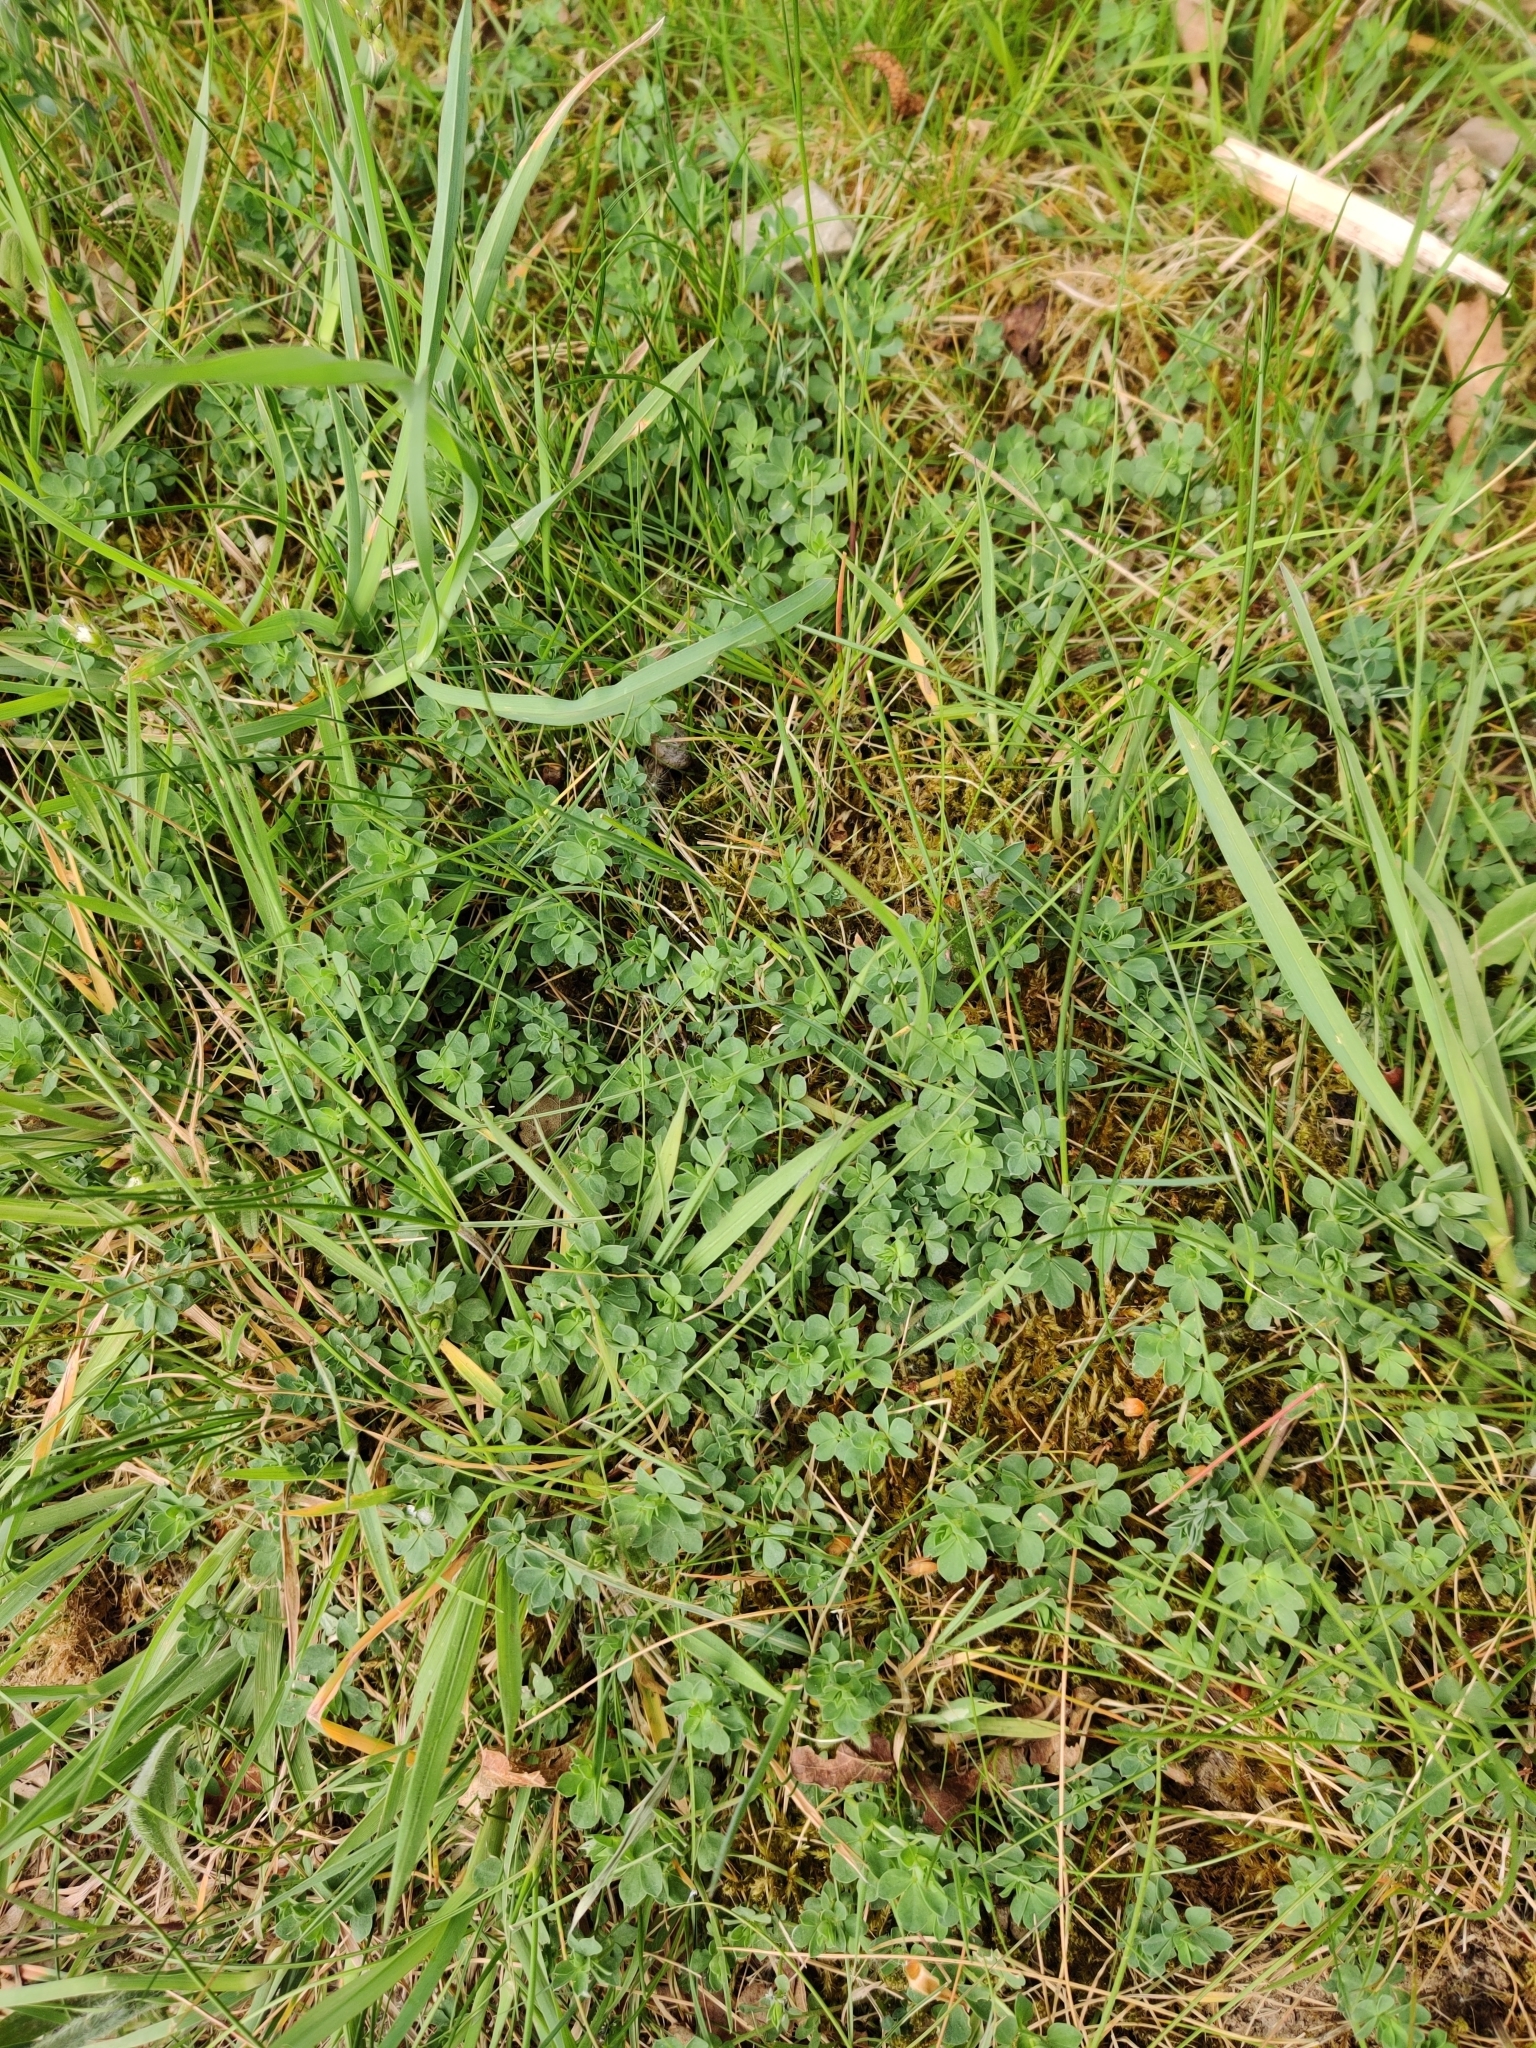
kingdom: Plantae
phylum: Tracheophyta
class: Magnoliopsida
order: Fabales
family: Fabaceae
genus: Lotus
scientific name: Lotus corniculatus
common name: Common bird's-foot-trefoil
